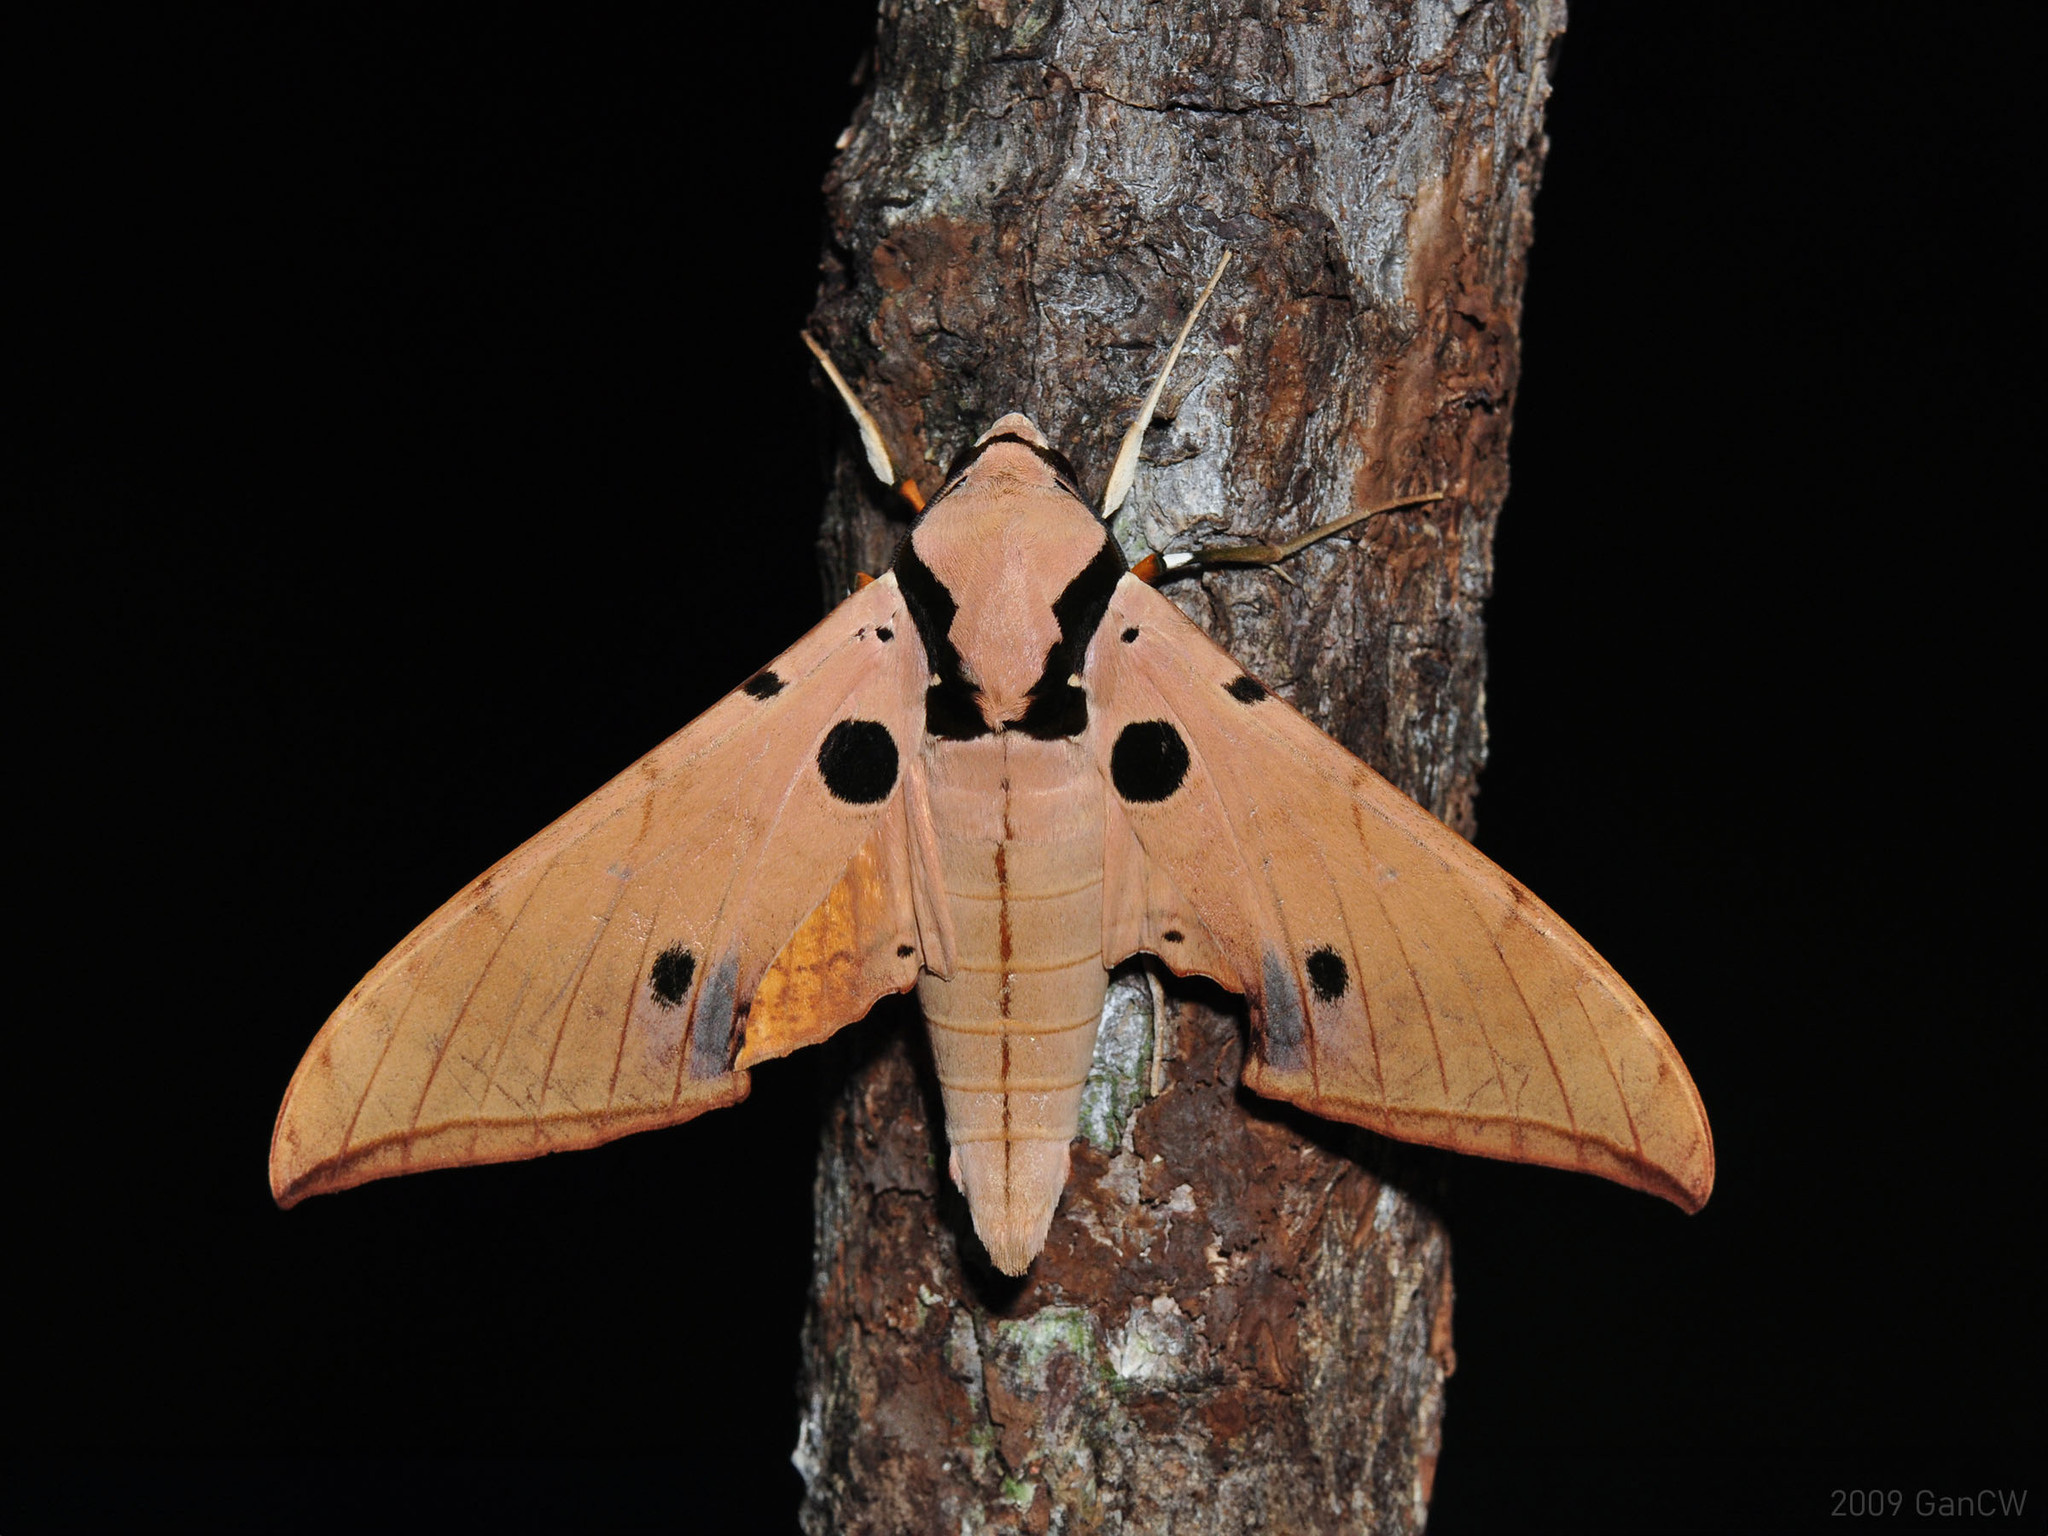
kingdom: Animalia
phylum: Arthropoda
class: Insecta
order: Lepidoptera
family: Sphingidae
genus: Ambulyx
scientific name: Ambulyx obliterata
